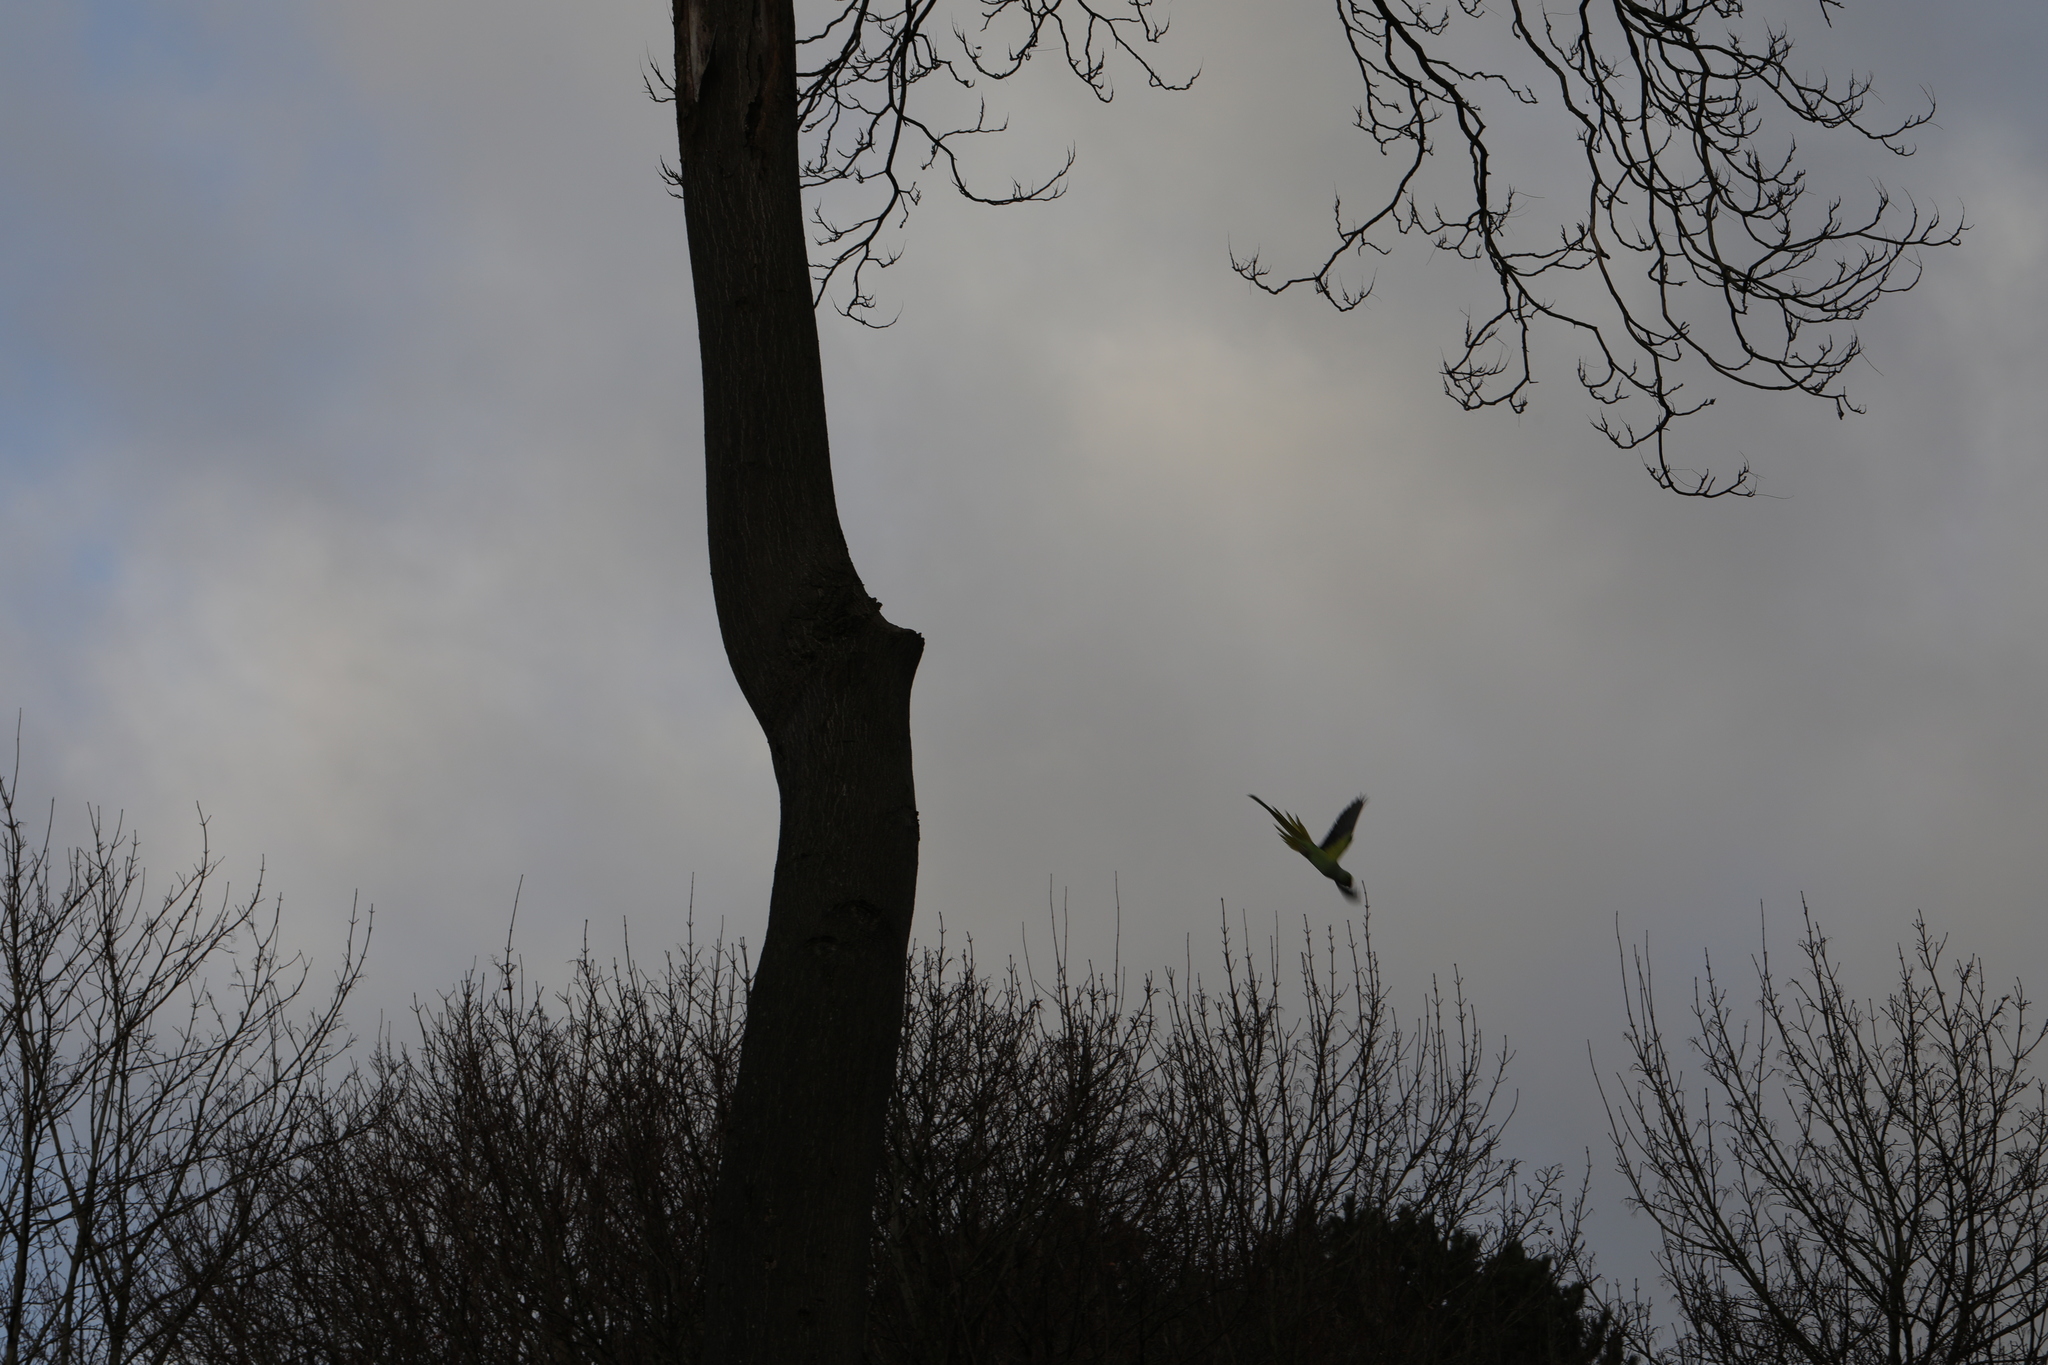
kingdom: Animalia
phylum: Chordata
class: Aves
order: Psittaciformes
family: Psittacidae
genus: Psittacula
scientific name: Psittacula krameri
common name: Rose-ringed parakeet
